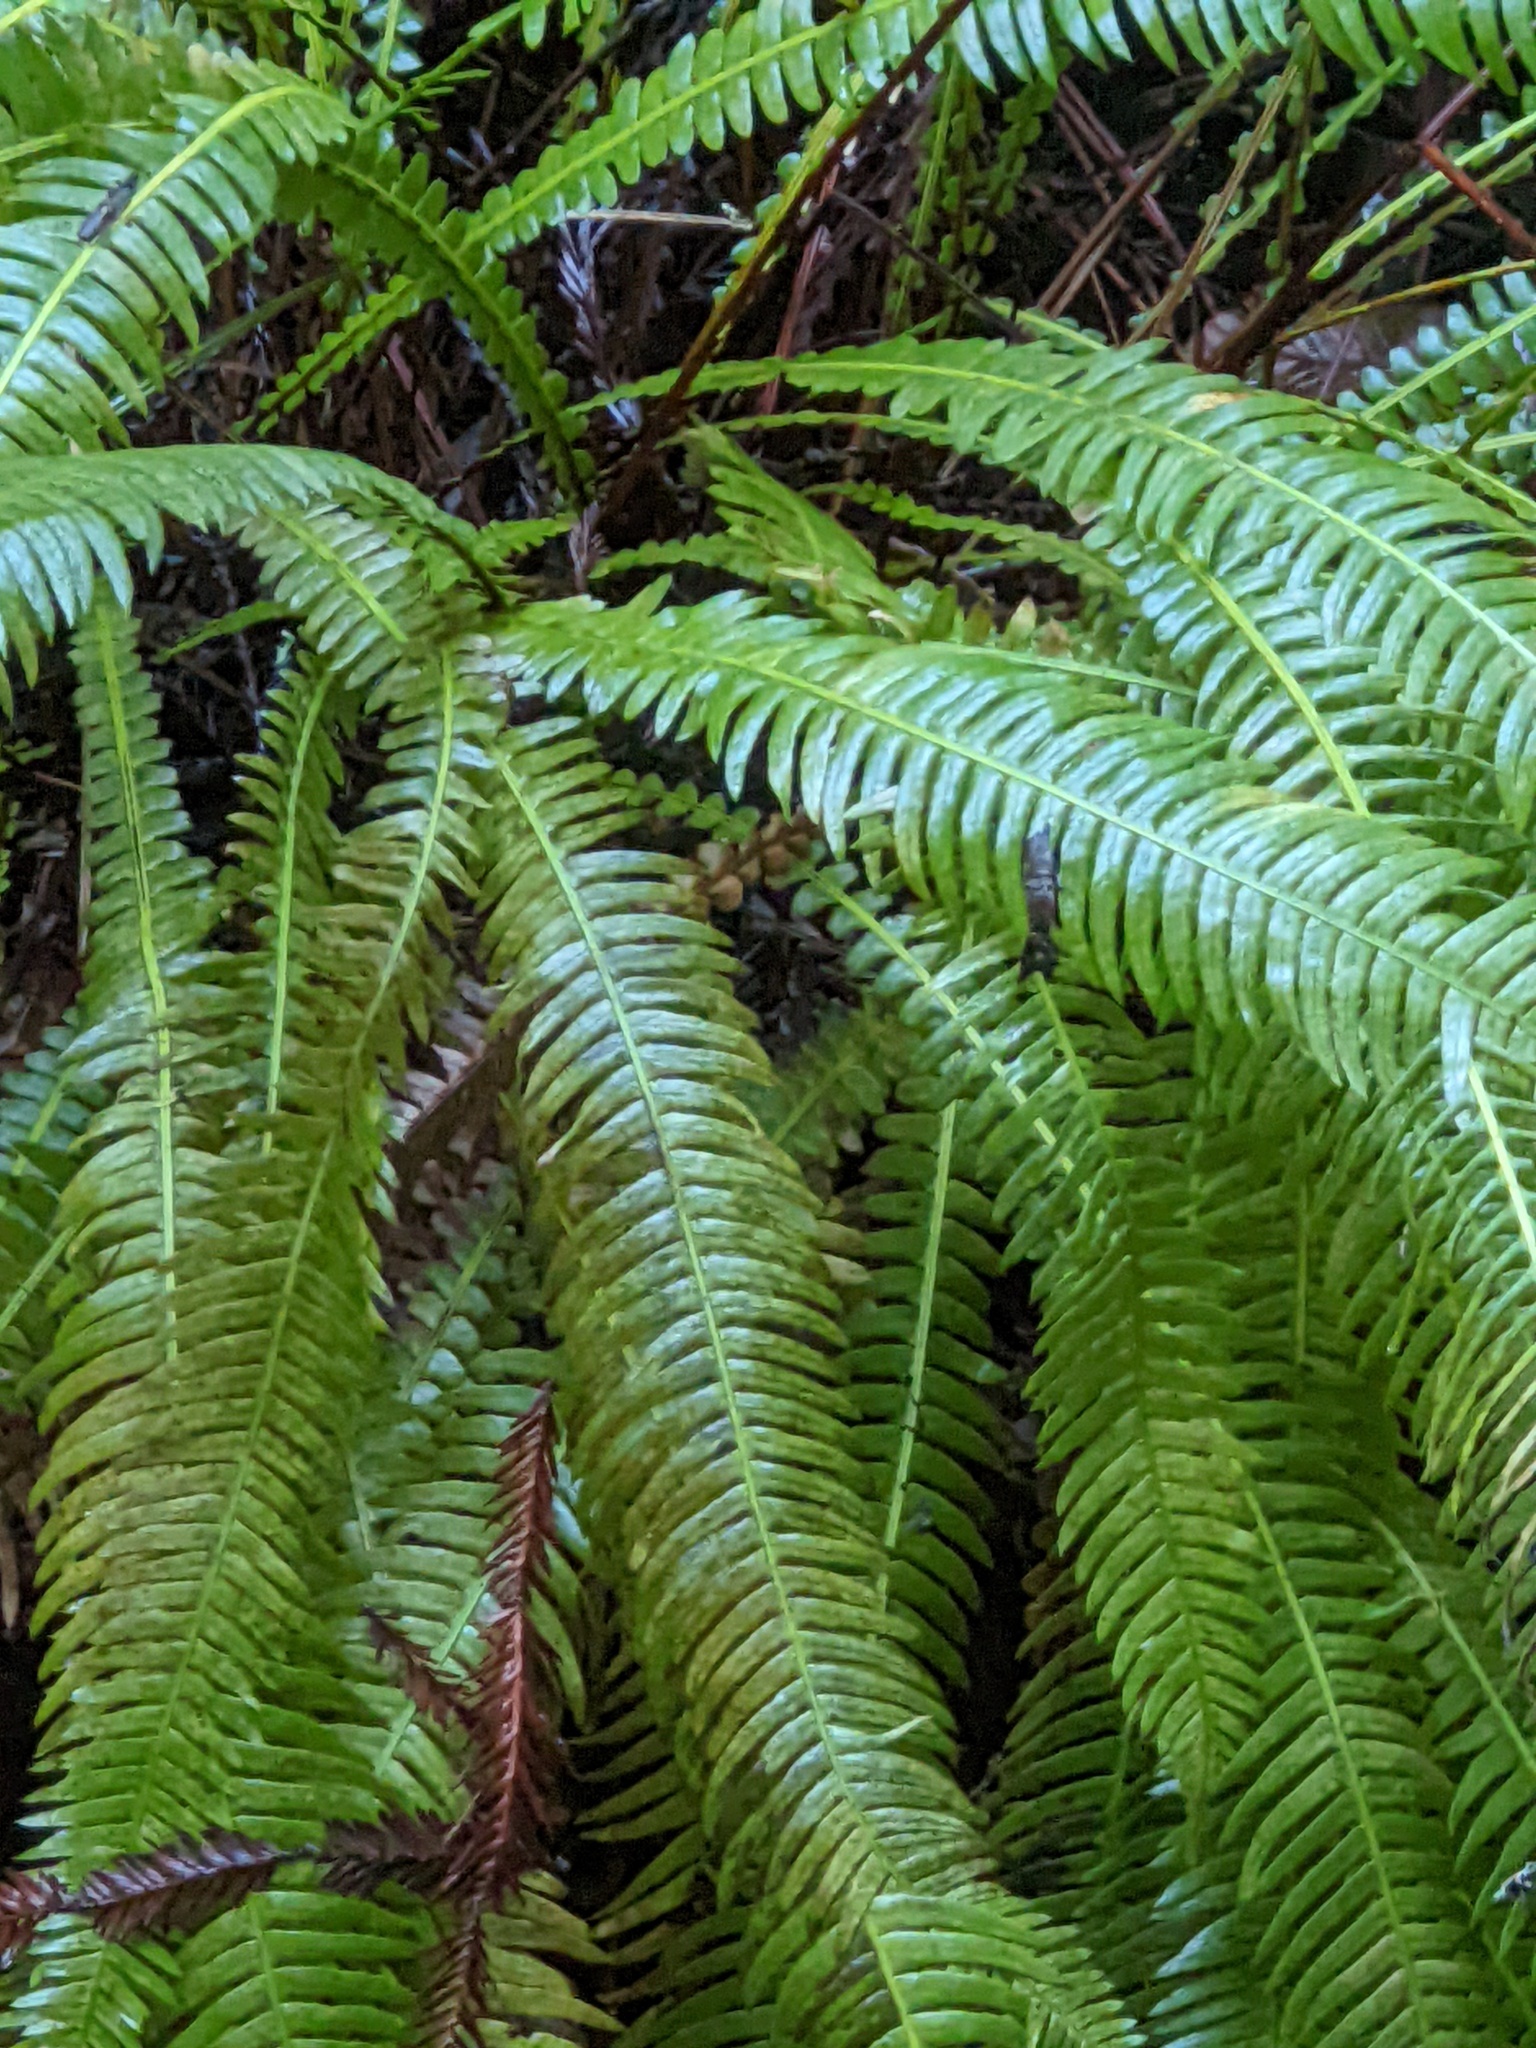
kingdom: Plantae
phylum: Tracheophyta
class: Polypodiopsida
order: Polypodiales
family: Blechnaceae
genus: Struthiopteris
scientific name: Struthiopteris spicant
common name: Deer fern
